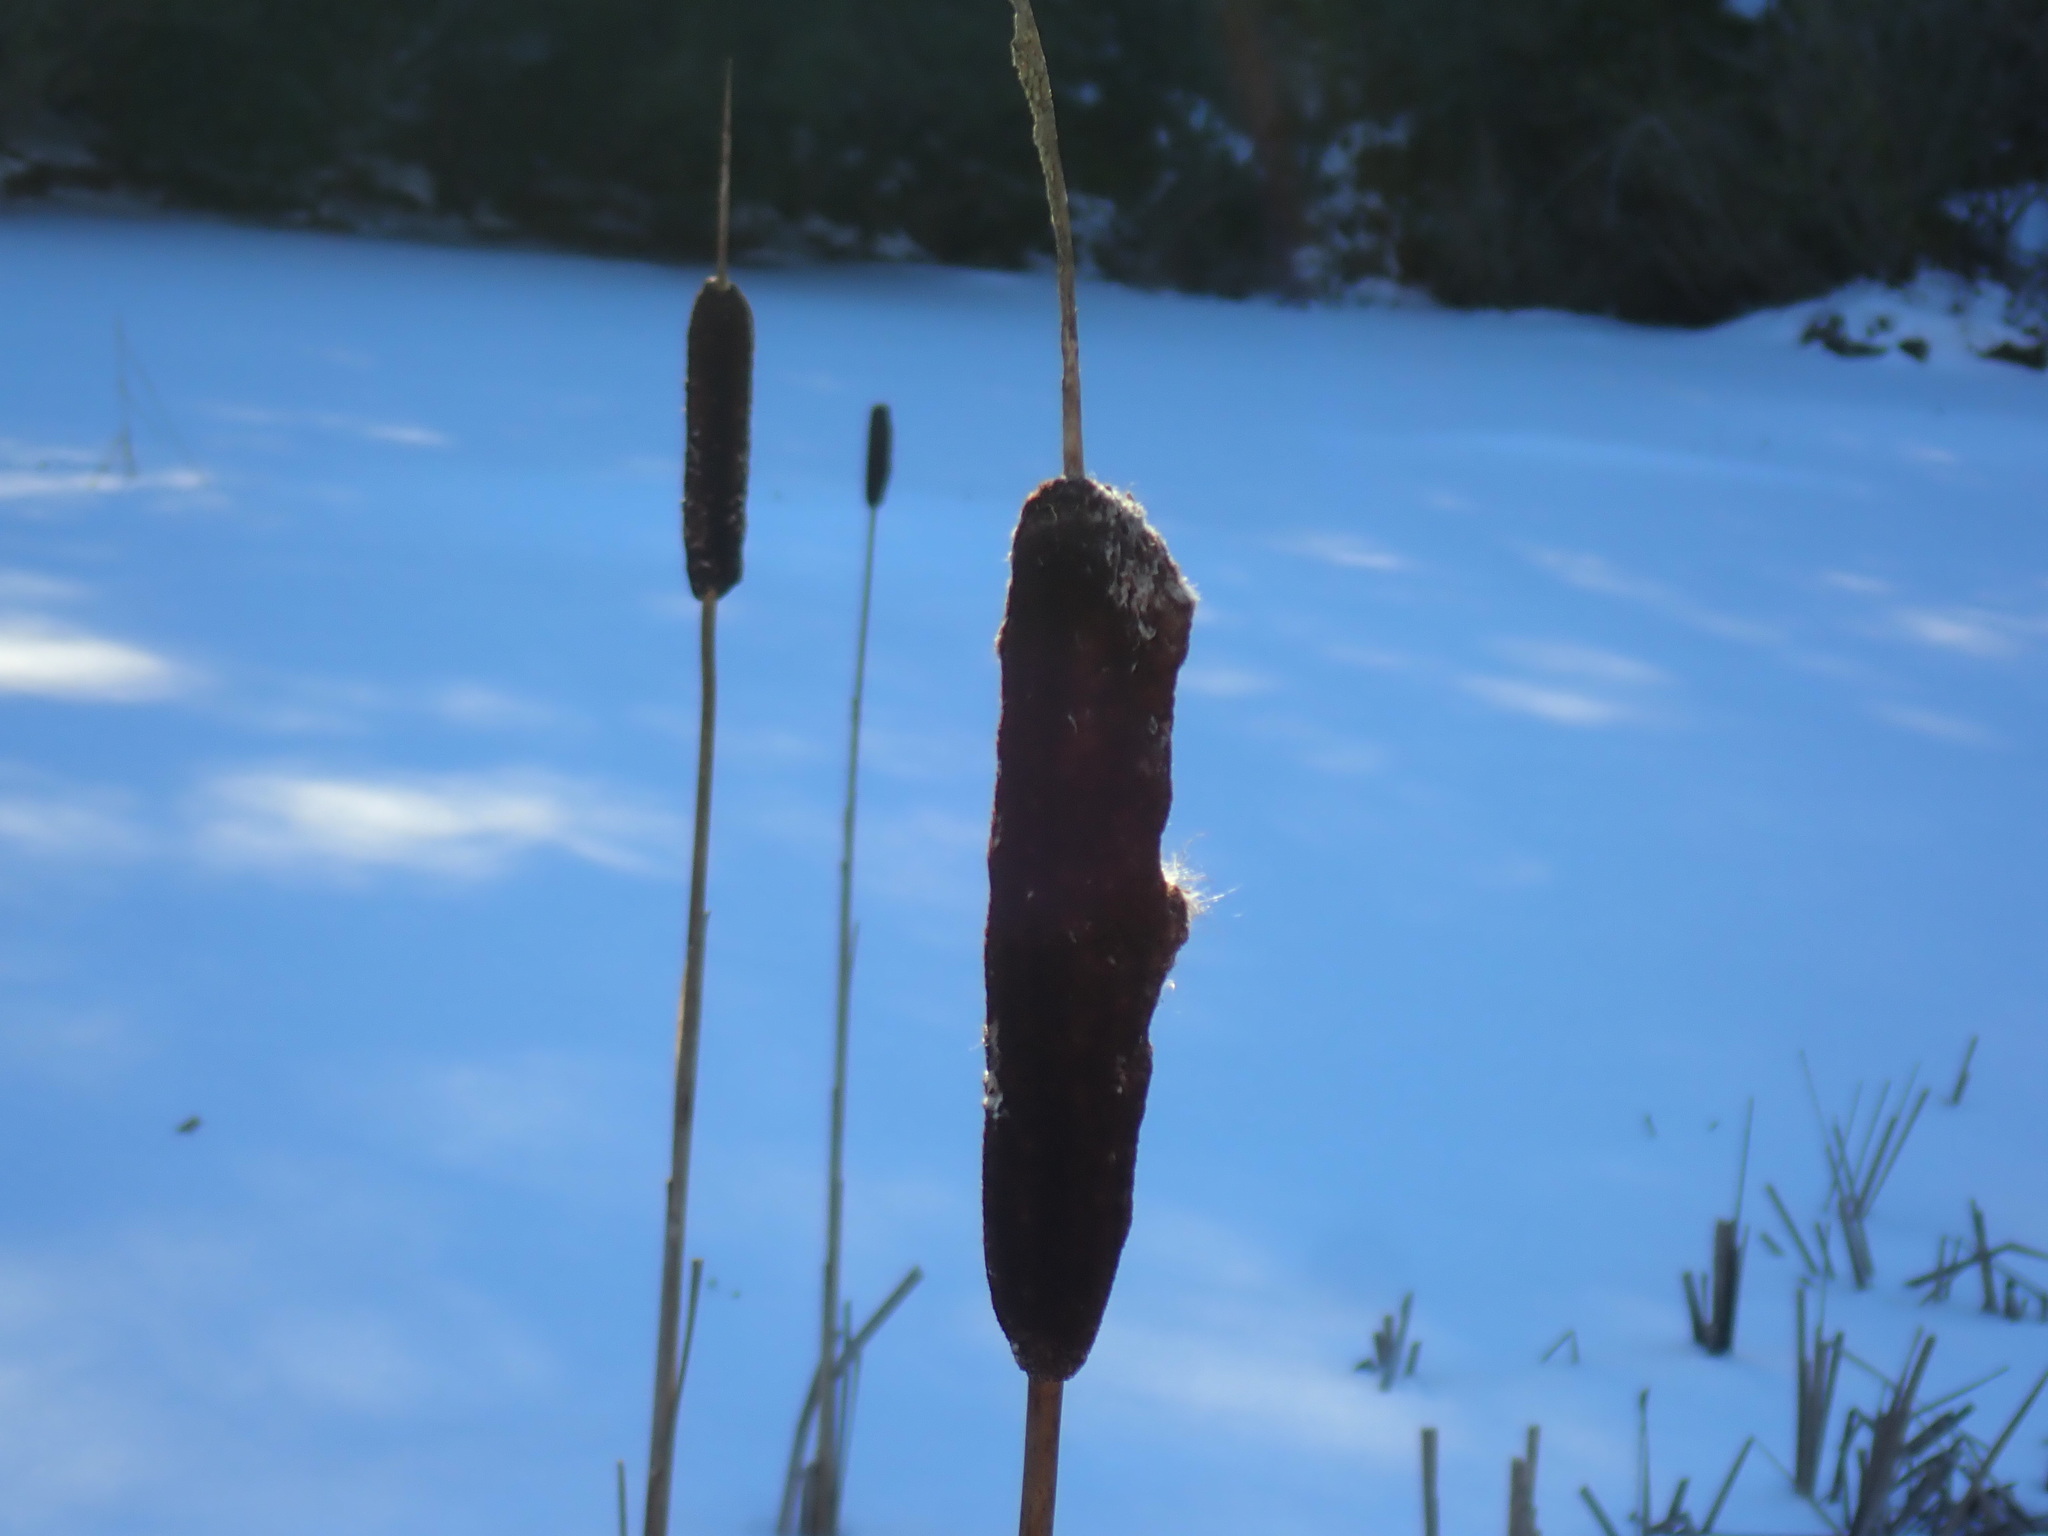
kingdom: Plantae
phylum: Tracheophyta
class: Liliopsida
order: Poales
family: Typhaceae
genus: Typha
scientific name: Typha latifolia
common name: Broadleaf cattail
